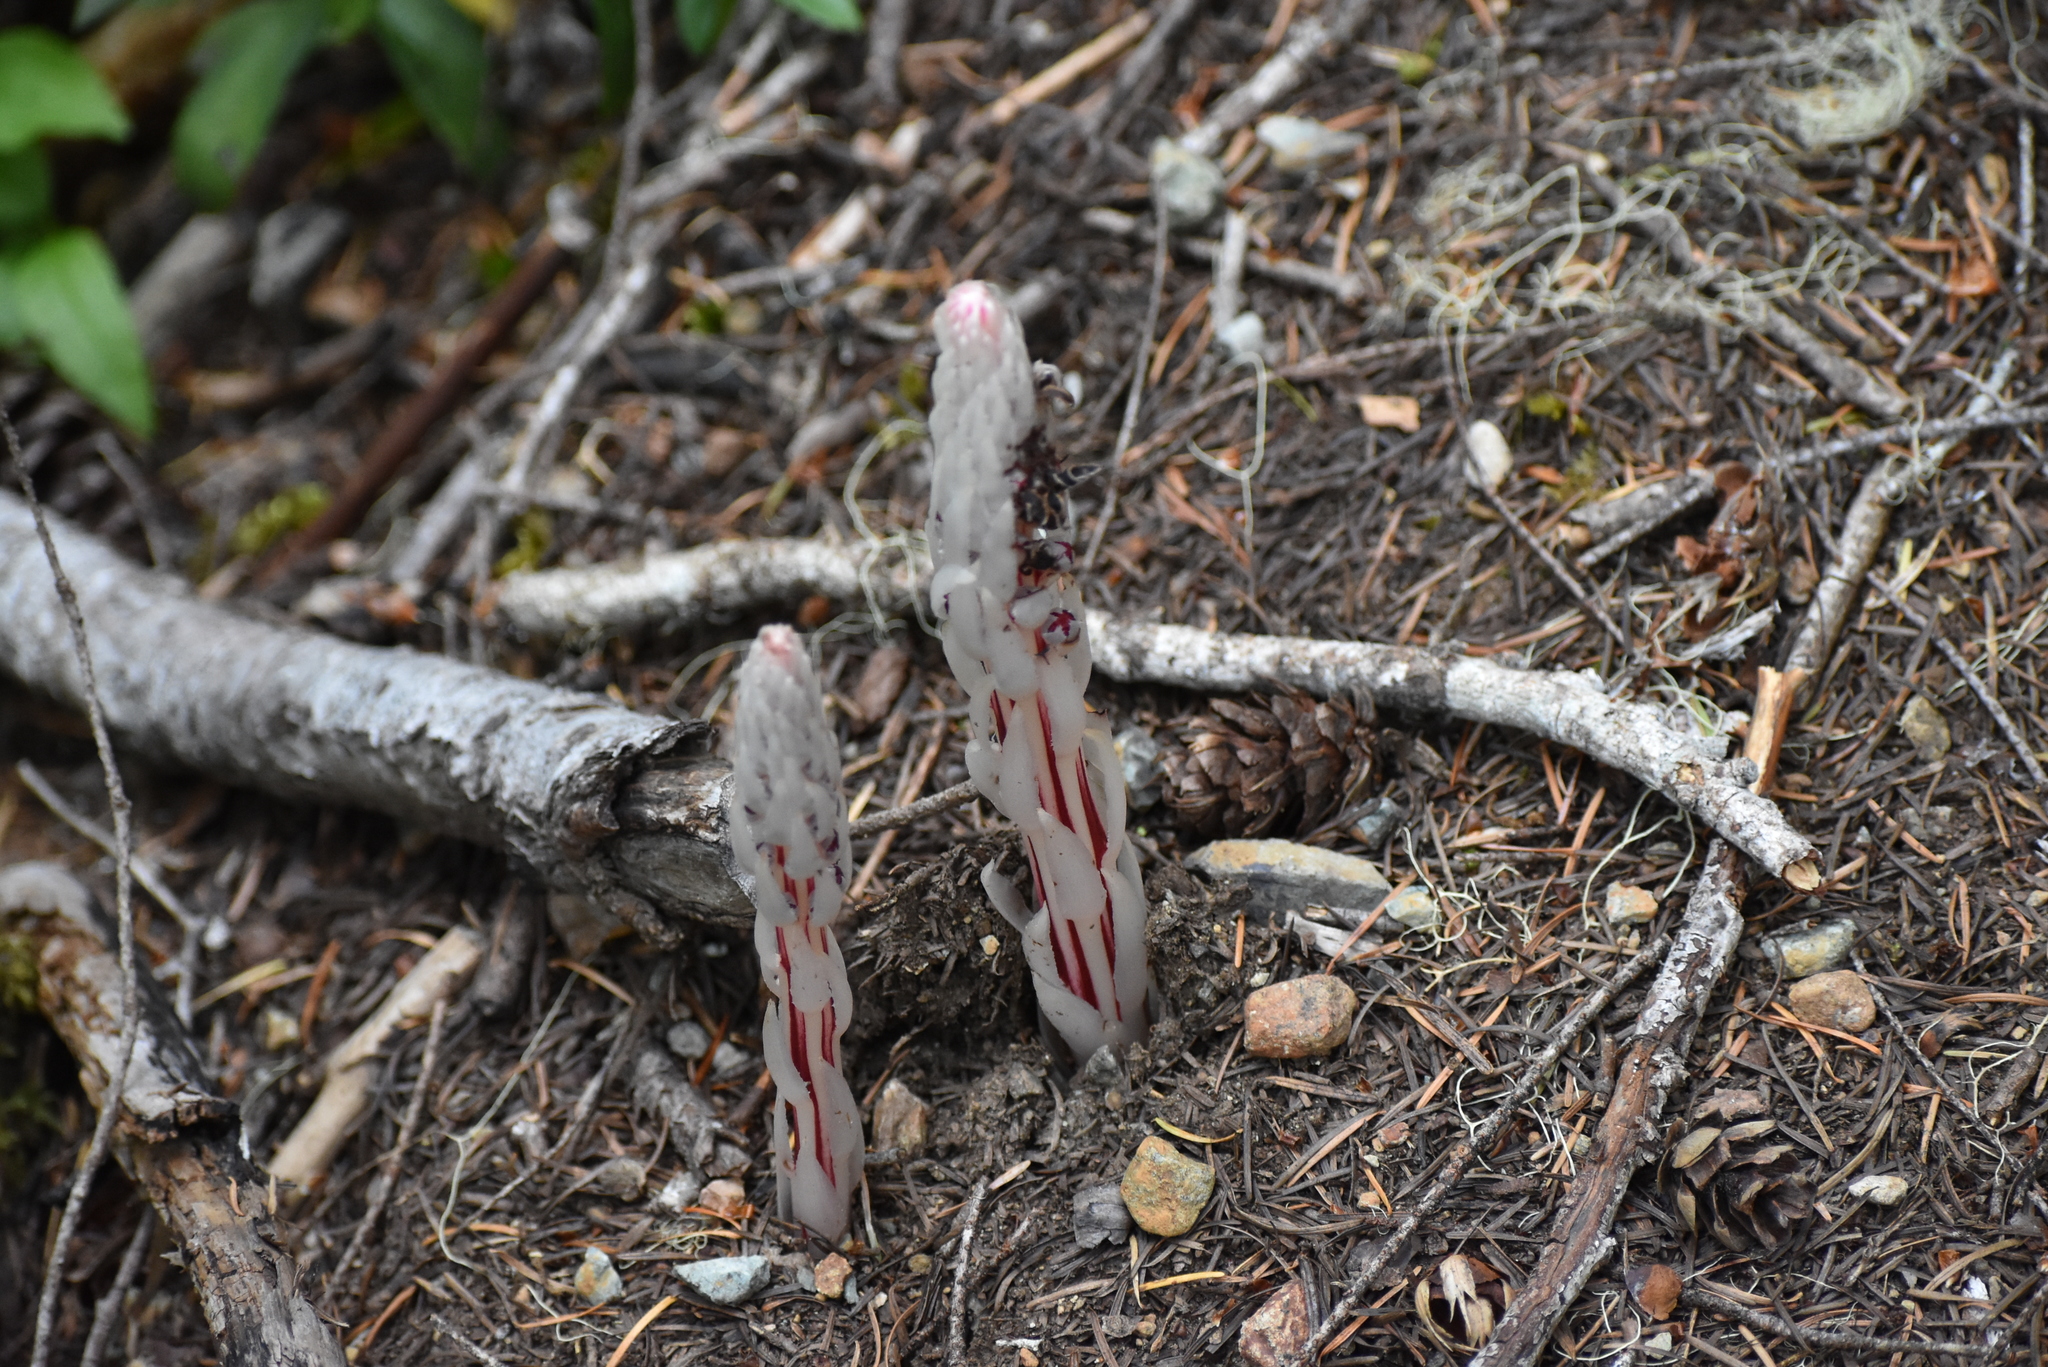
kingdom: Plantae
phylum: Tracheophyta
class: Magnoliopsida
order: Ericales
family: Ericaceae
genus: Allotropa
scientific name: Allotropa virgata
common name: Candy-striped allotropa
